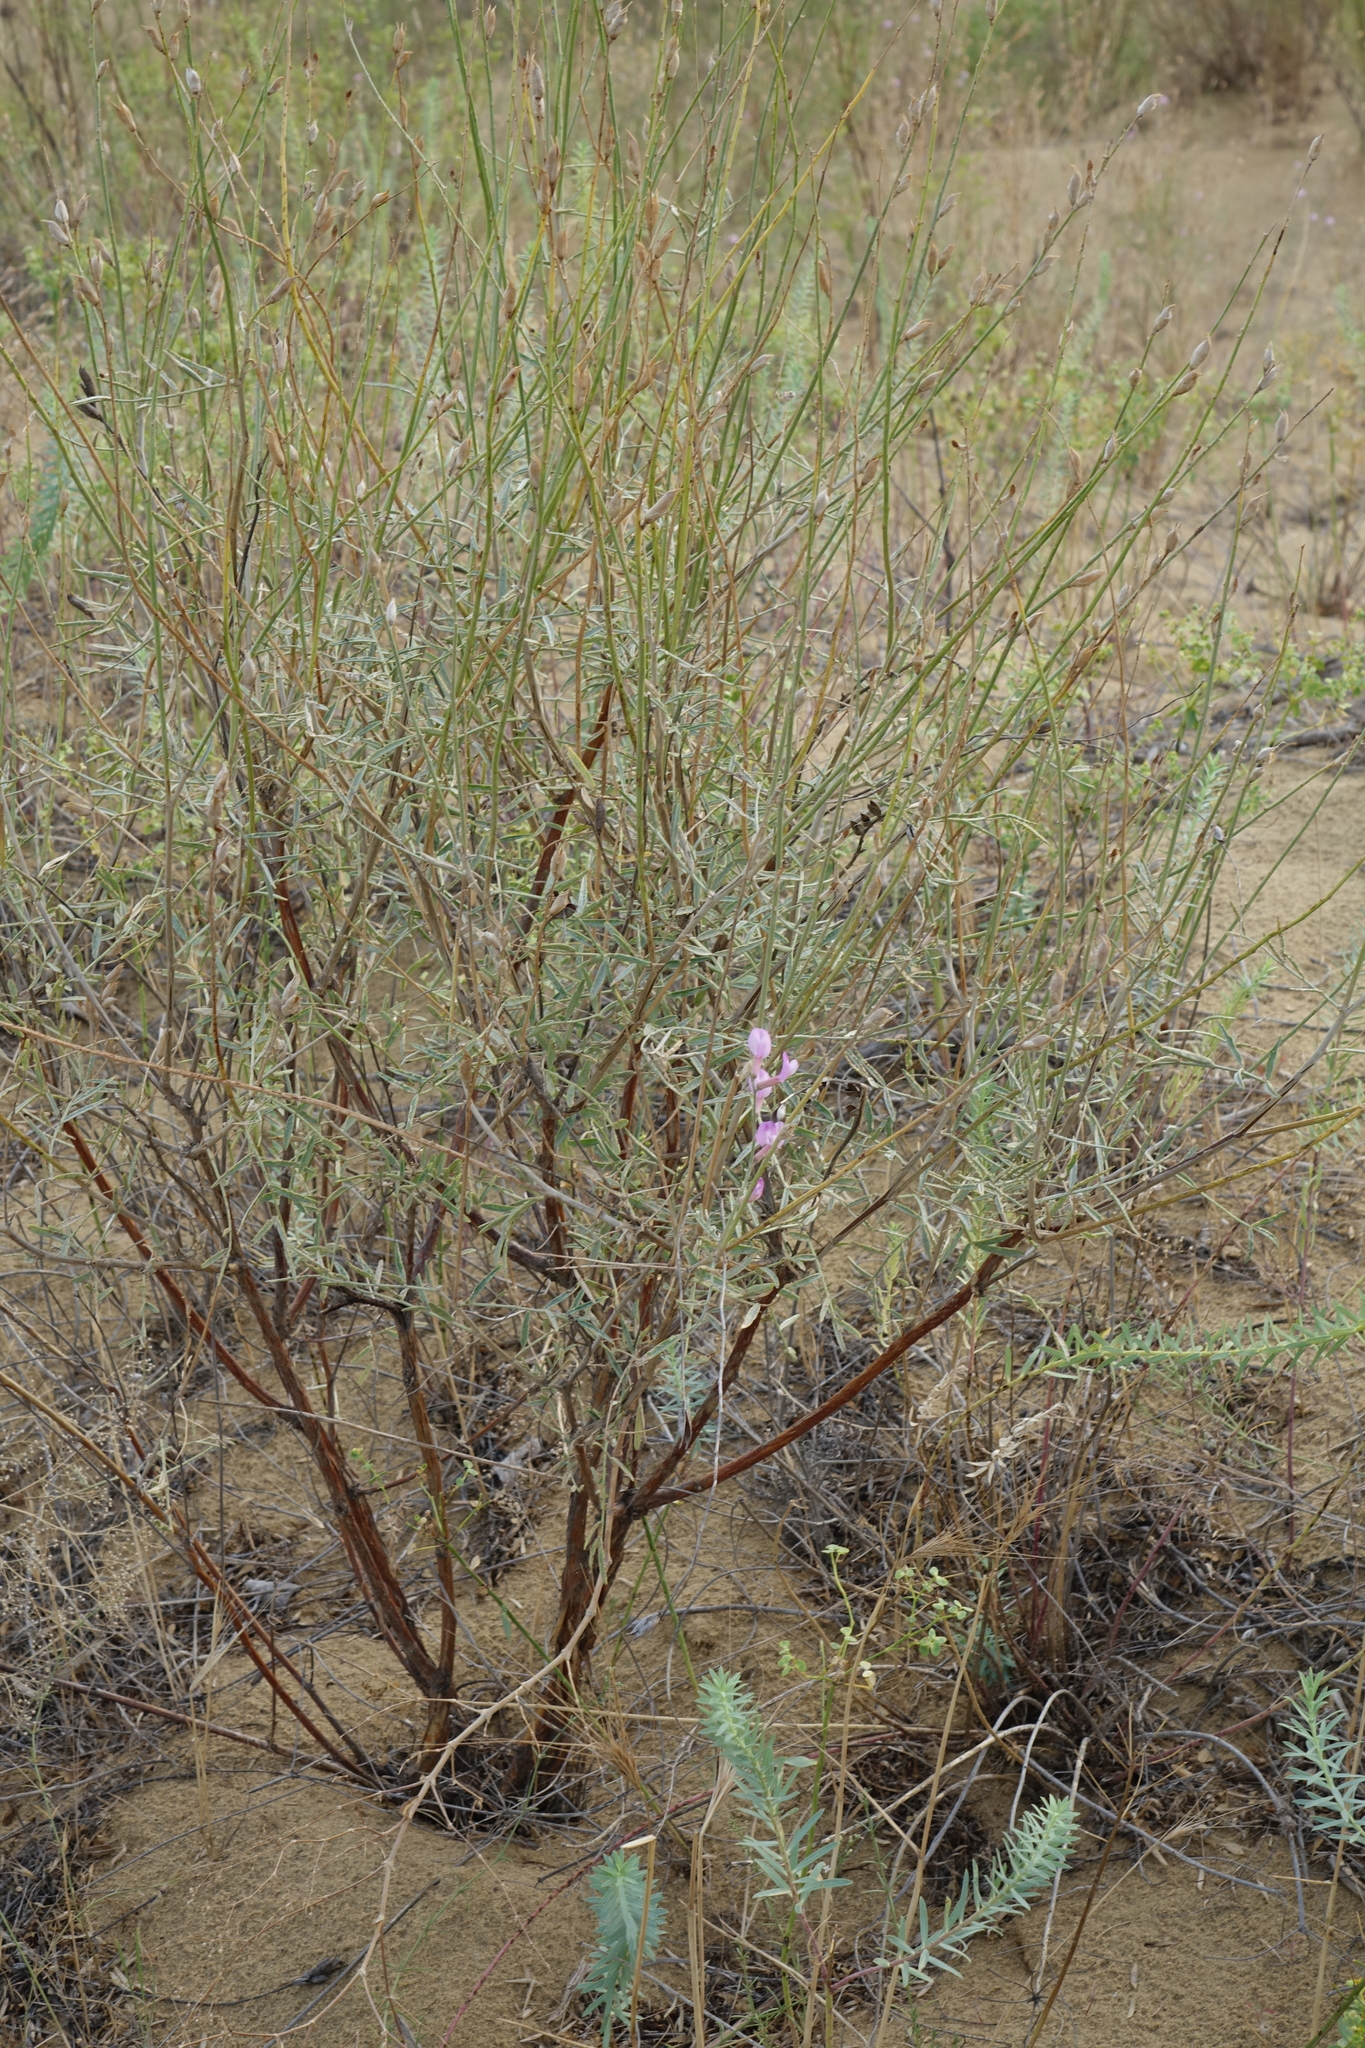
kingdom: Plantae
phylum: Tracheophyta
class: Magnoliopsida
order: Fabales
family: Fabaceae
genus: Astragalus
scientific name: Astragalus brachylobus
